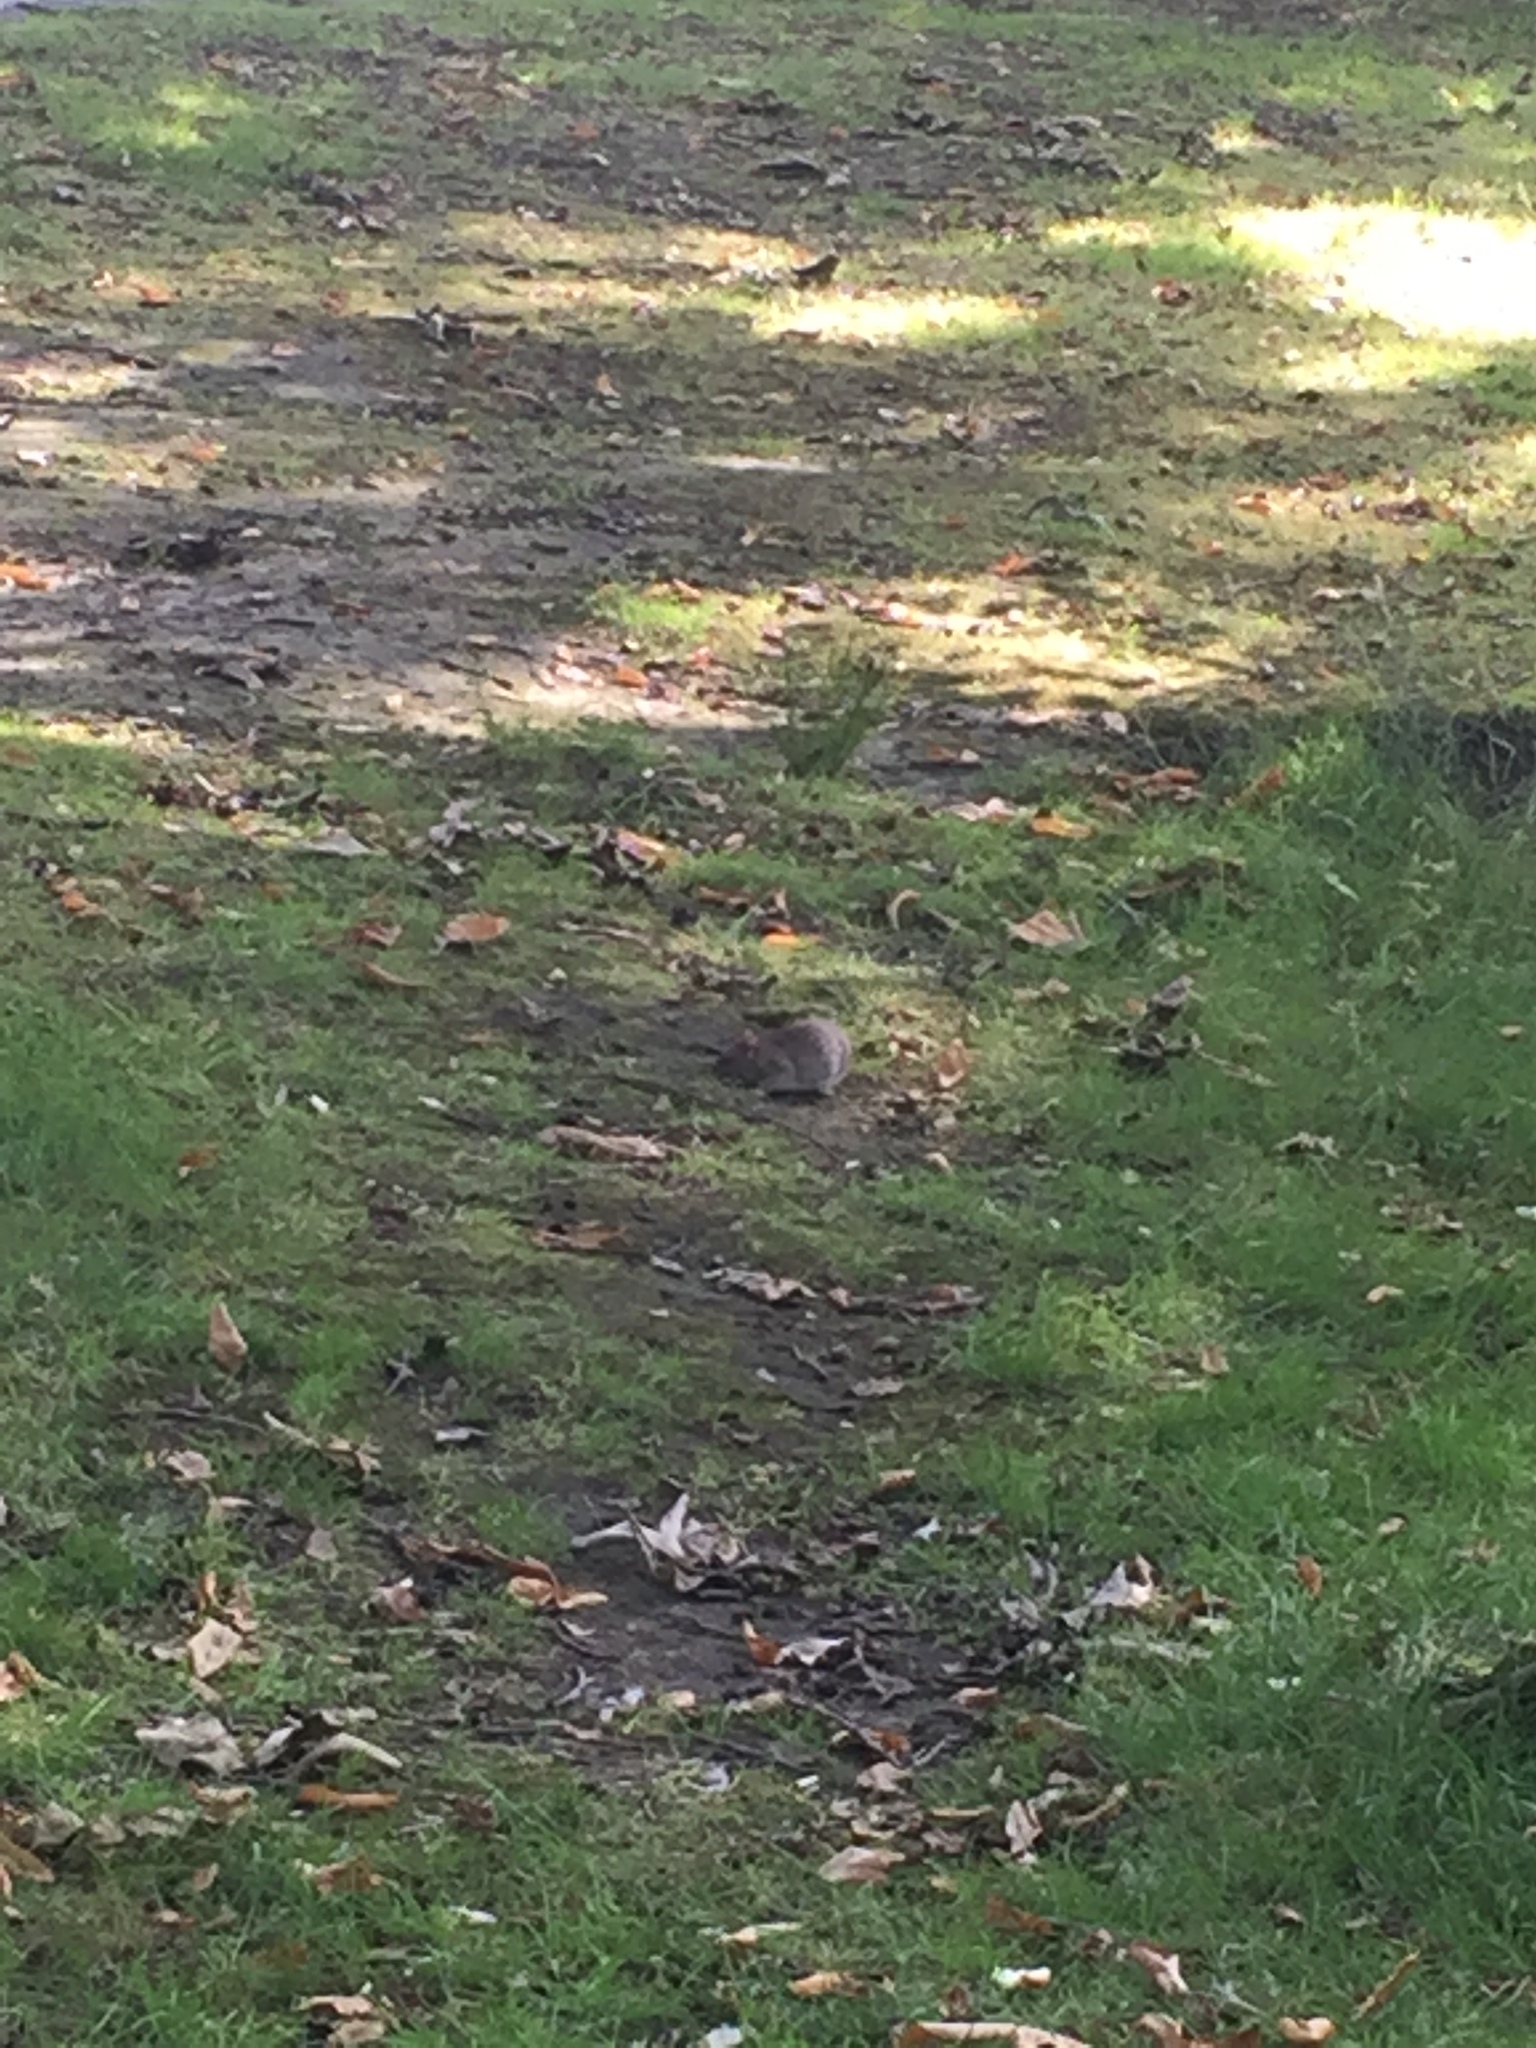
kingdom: Animalia
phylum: Chordata
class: Mammalia
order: Rodentia
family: Muridae
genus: Rattus
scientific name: Rattus norvegicus
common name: Brown rat
